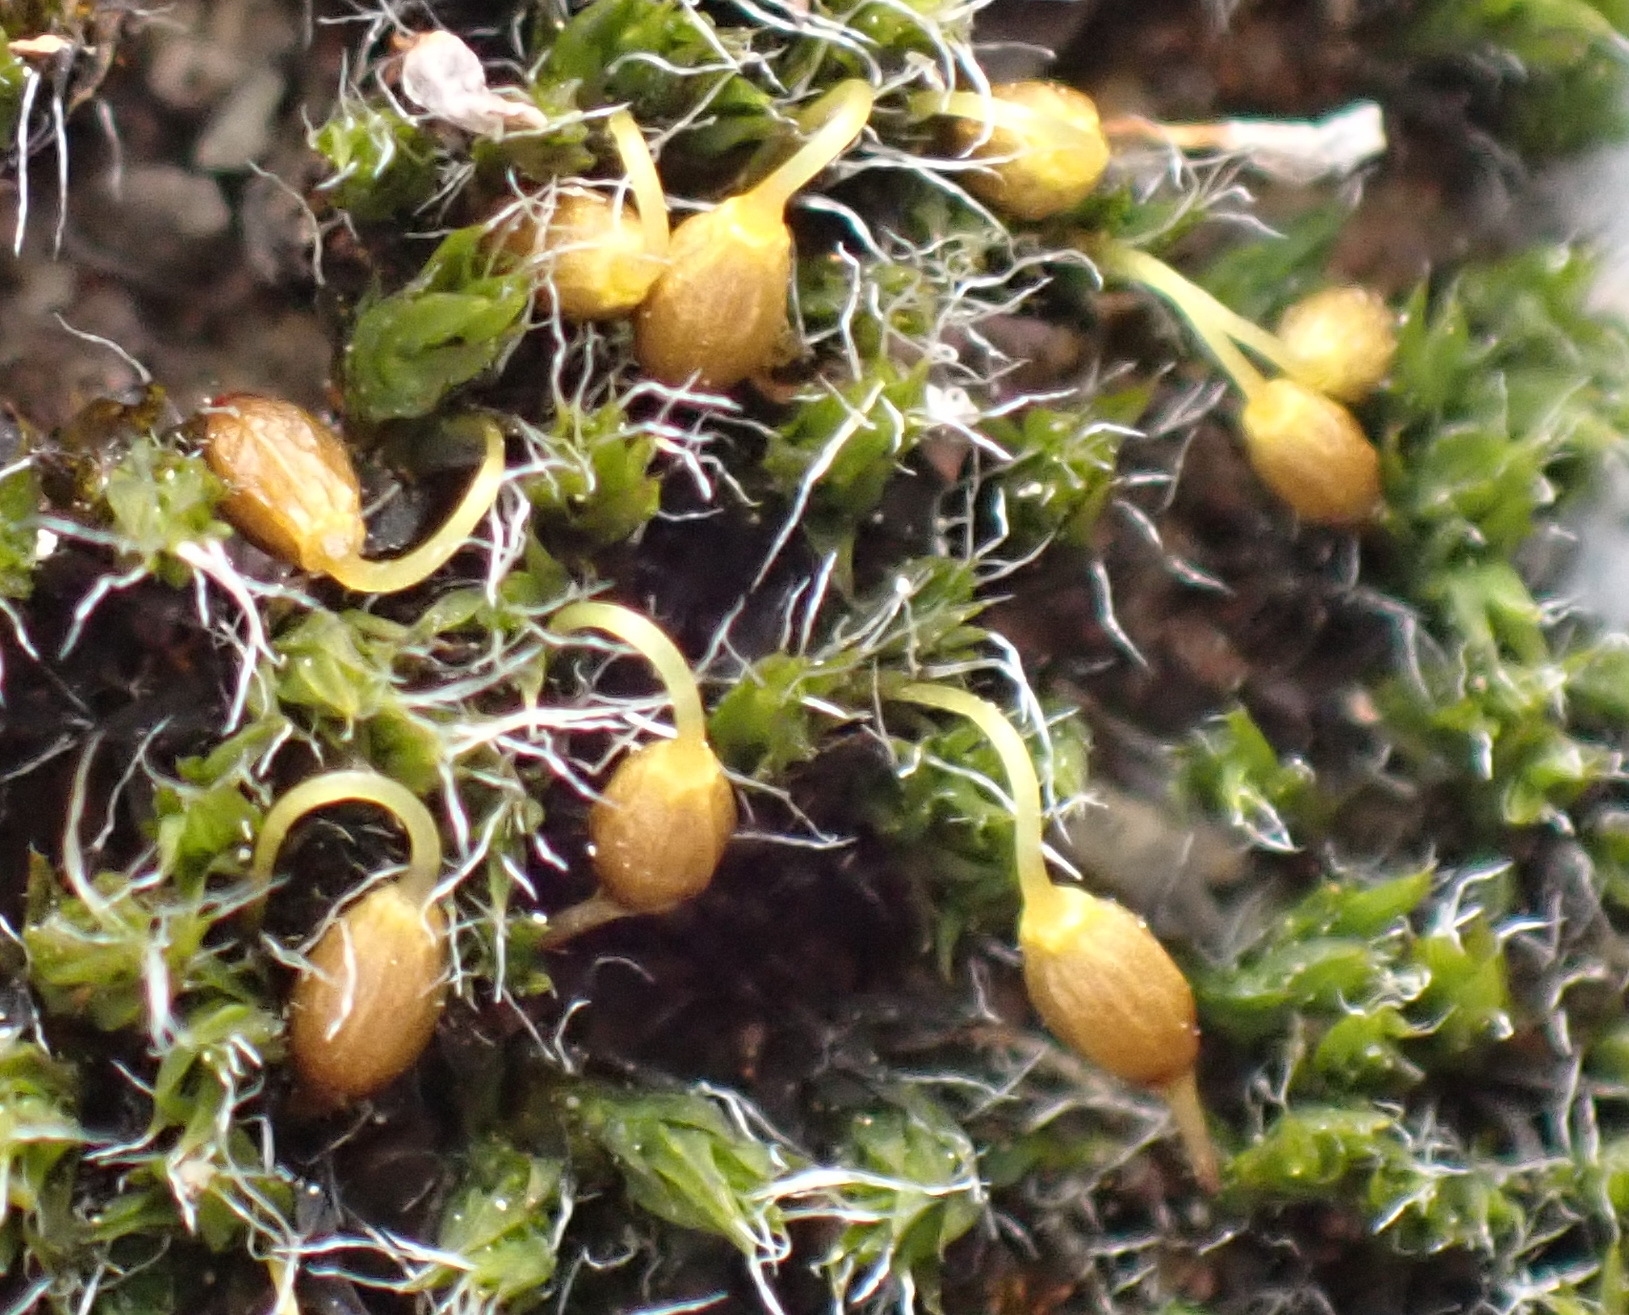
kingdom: Plantae
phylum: Bryophyta
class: Bryopsida
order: Grimmiales
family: Grimmiaceae
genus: Grimmia
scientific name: Grimmia pulvinata
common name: Grey-cushioned grimmia
